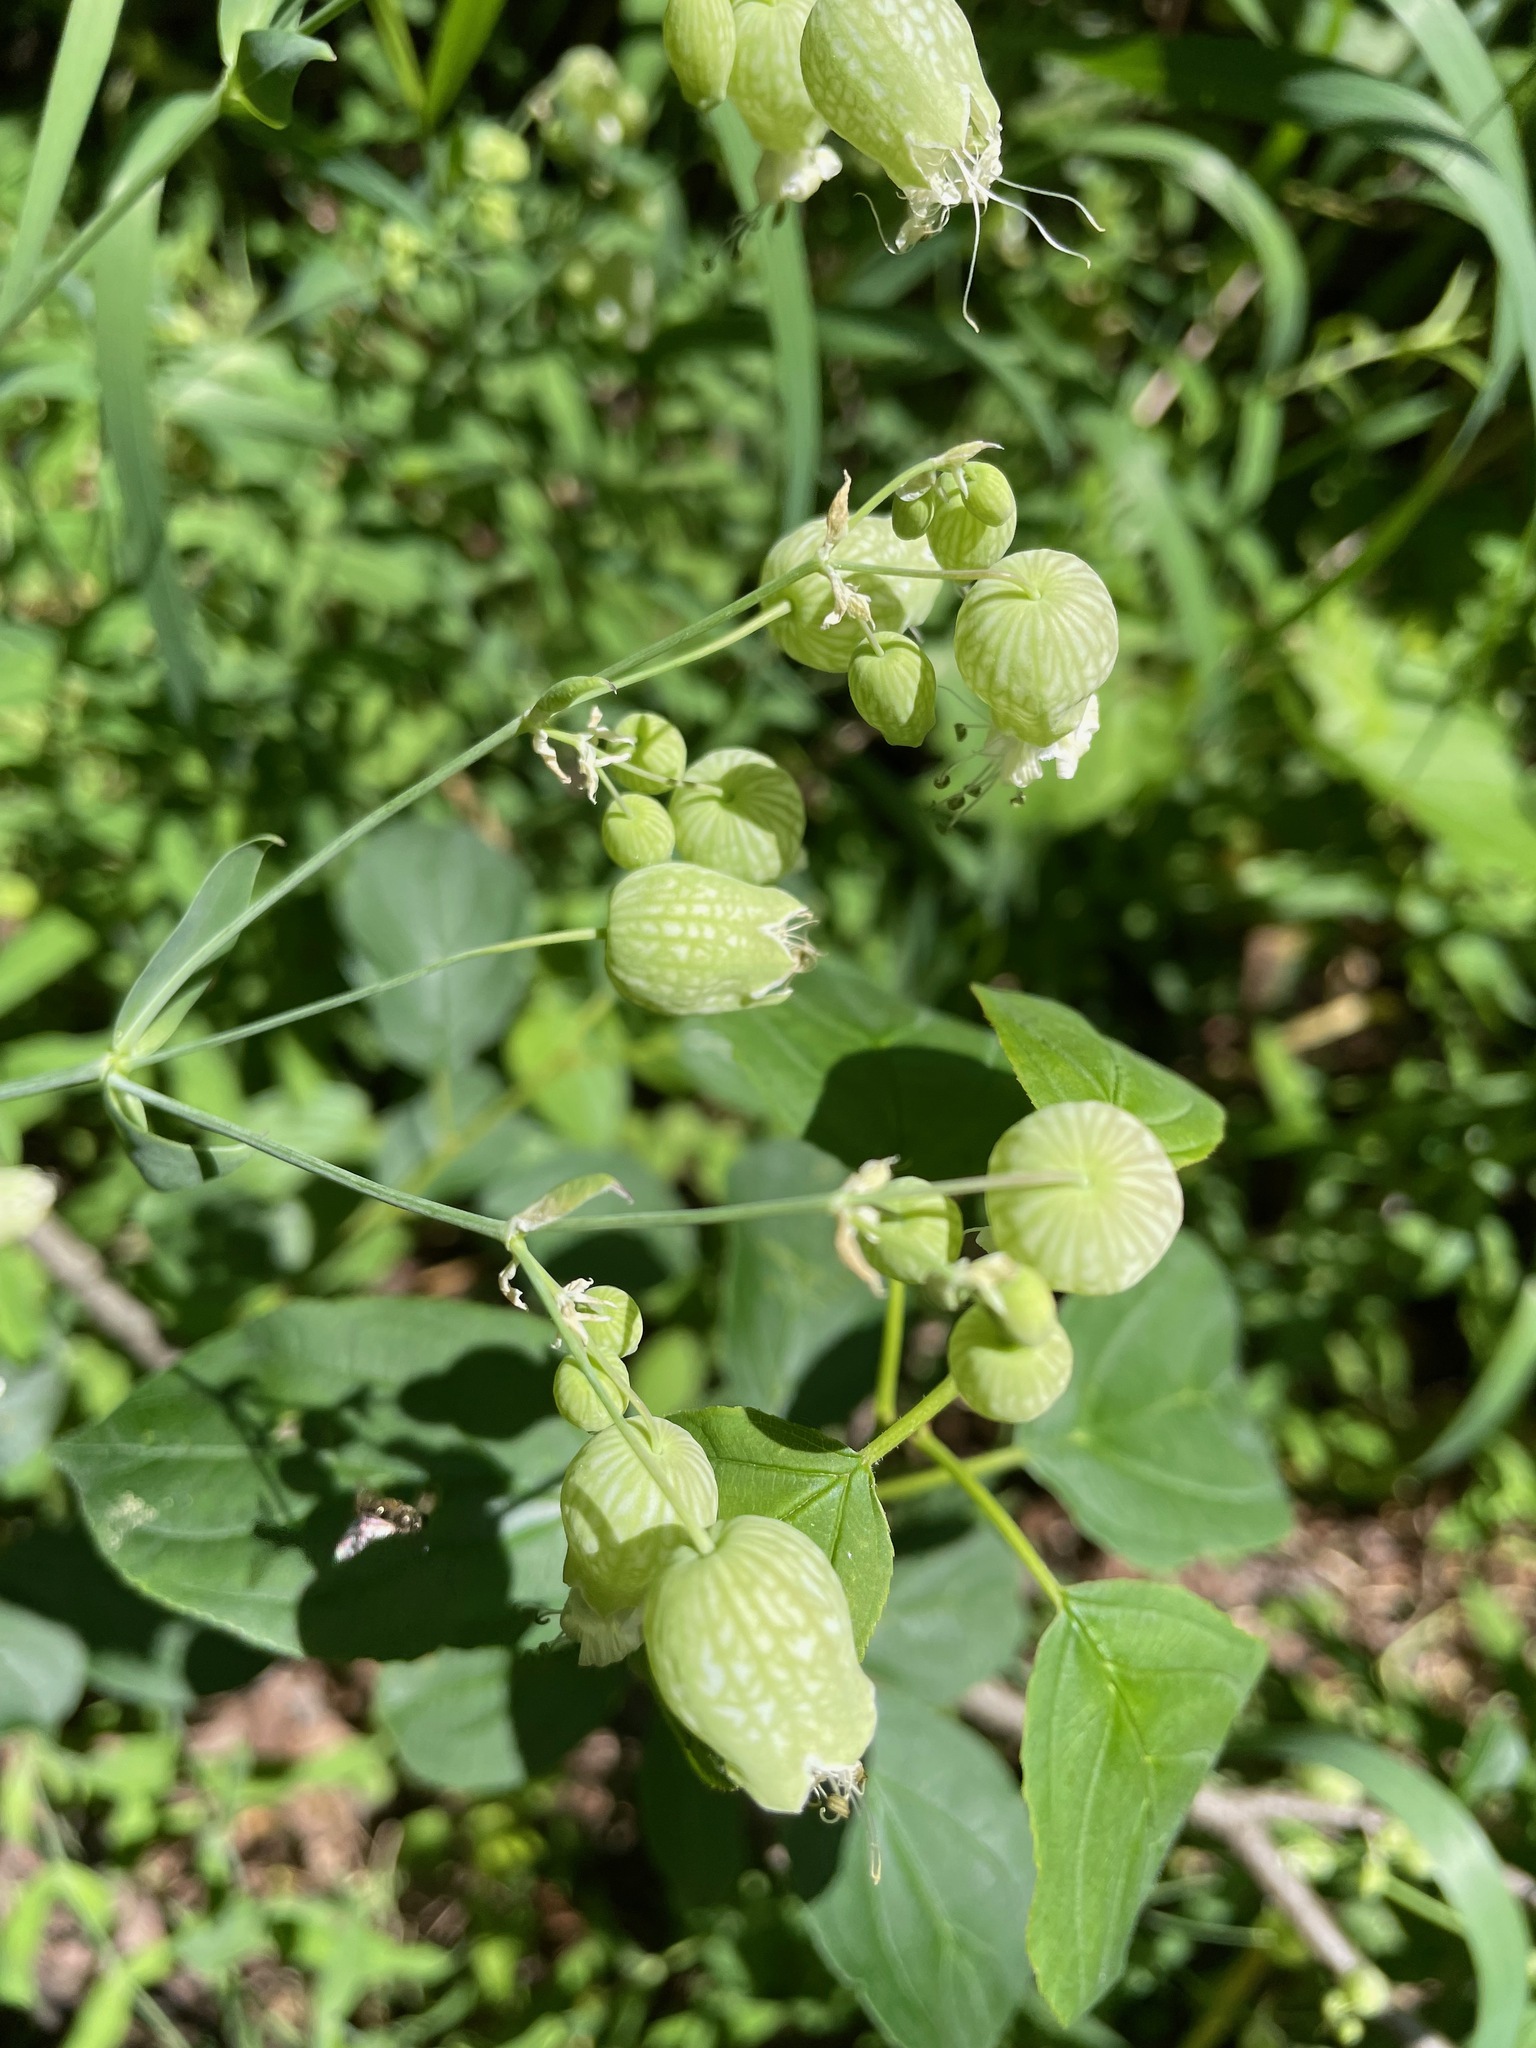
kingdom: Plantae
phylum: Tracheophyta
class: Magnoliopsida
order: Caryophyllales
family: Caryophyllaceae
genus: Silene
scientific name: Silene vulgaris
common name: Bladder campion
